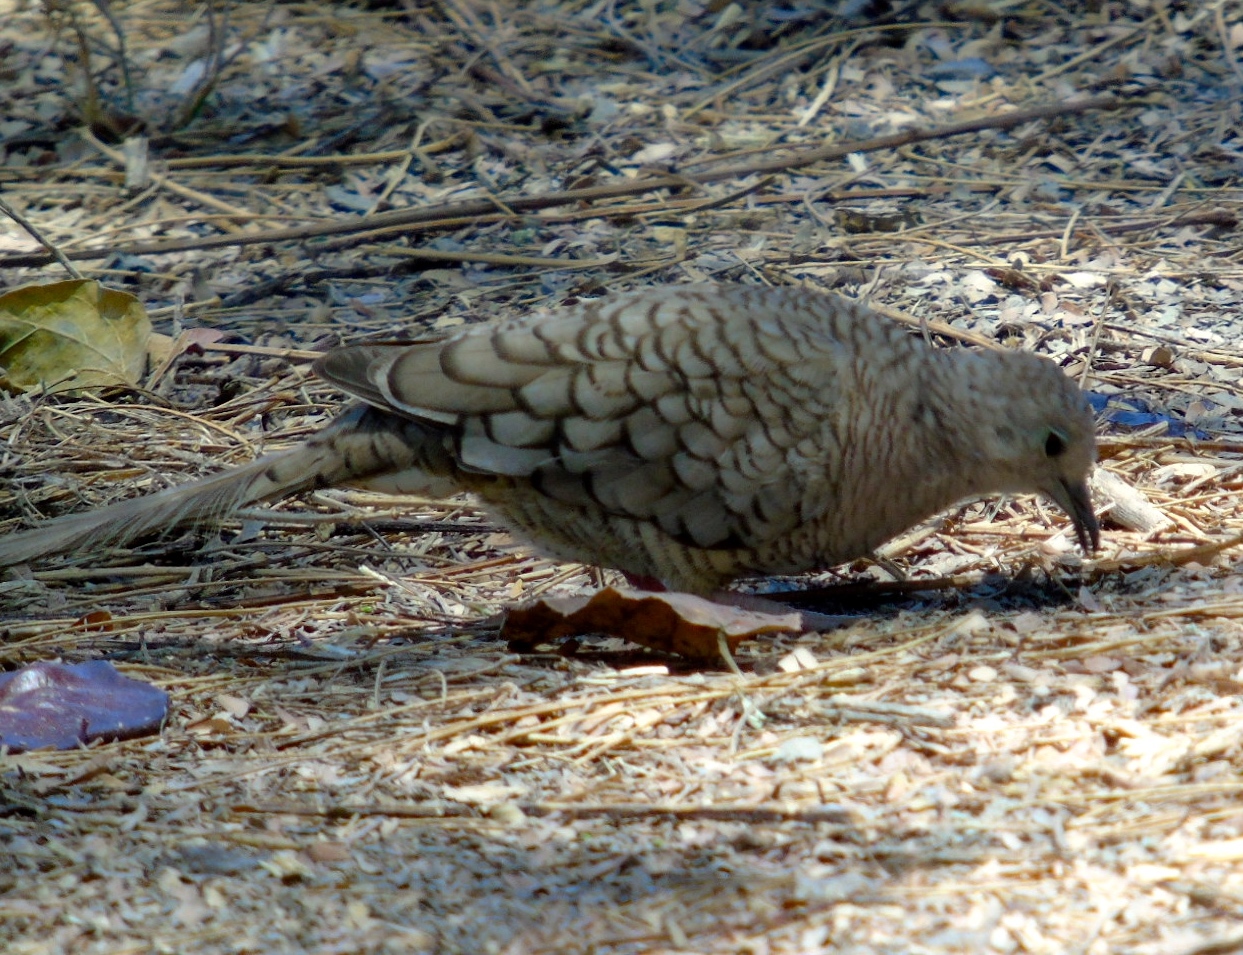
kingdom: Animalia
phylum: Chordata
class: Aves
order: Columbiformes
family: Columbidae
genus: Columbina
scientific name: Columbina inca
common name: Inca dove
